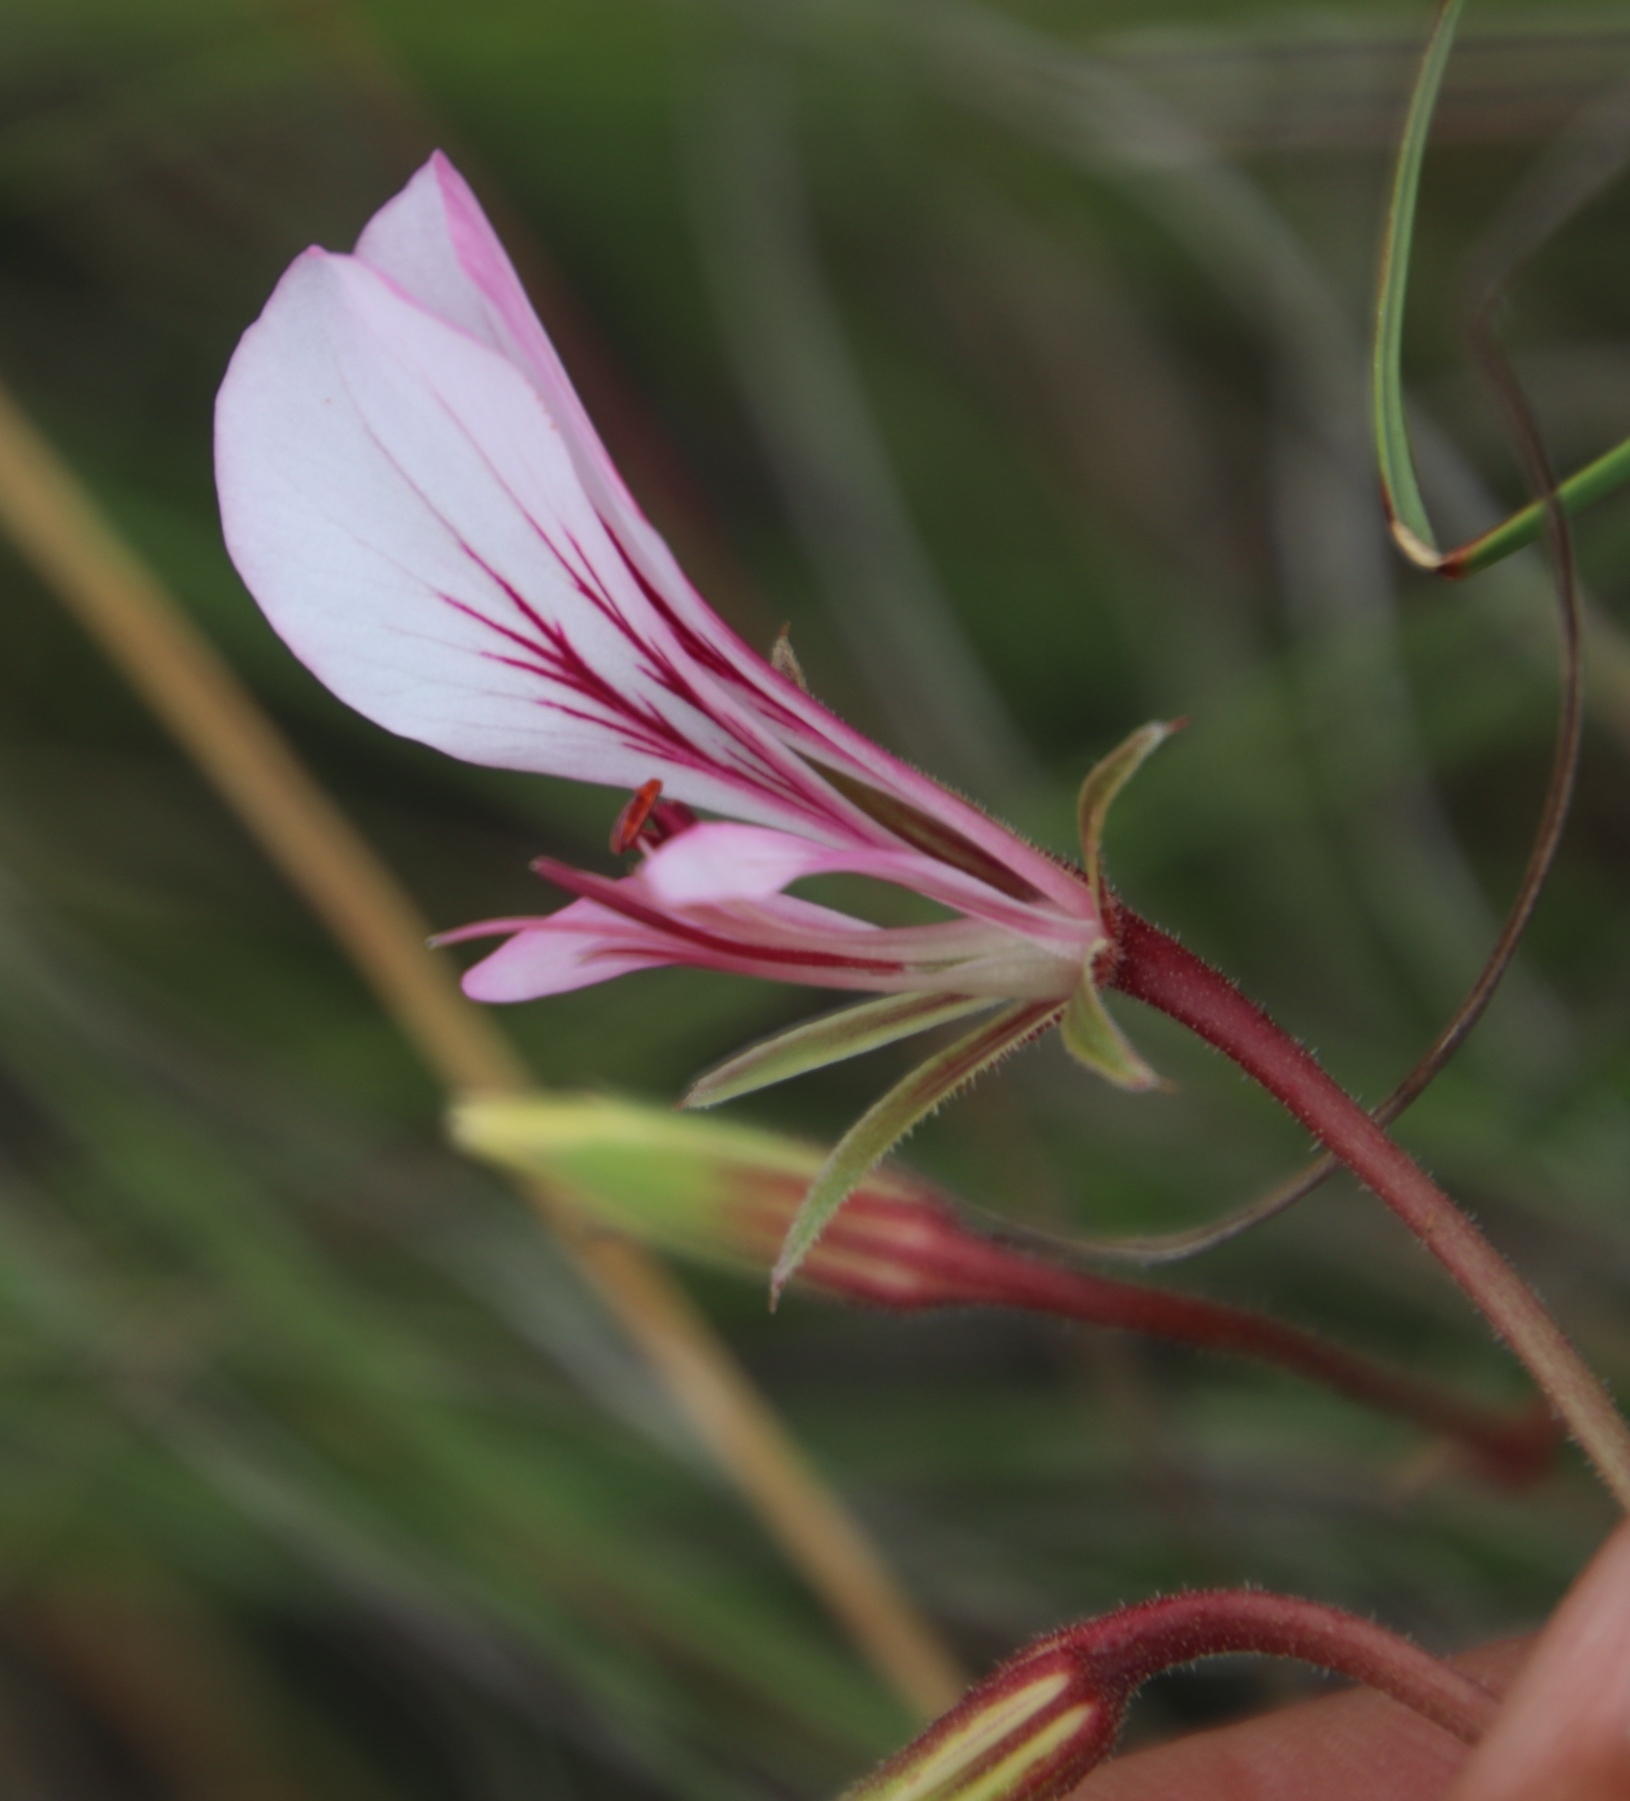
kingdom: Plantae
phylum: Tracheophyta
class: Magnoliopsida
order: Geraniales
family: Geraniaceae
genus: Pelargonium
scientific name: Pelargonium caucalifolium
